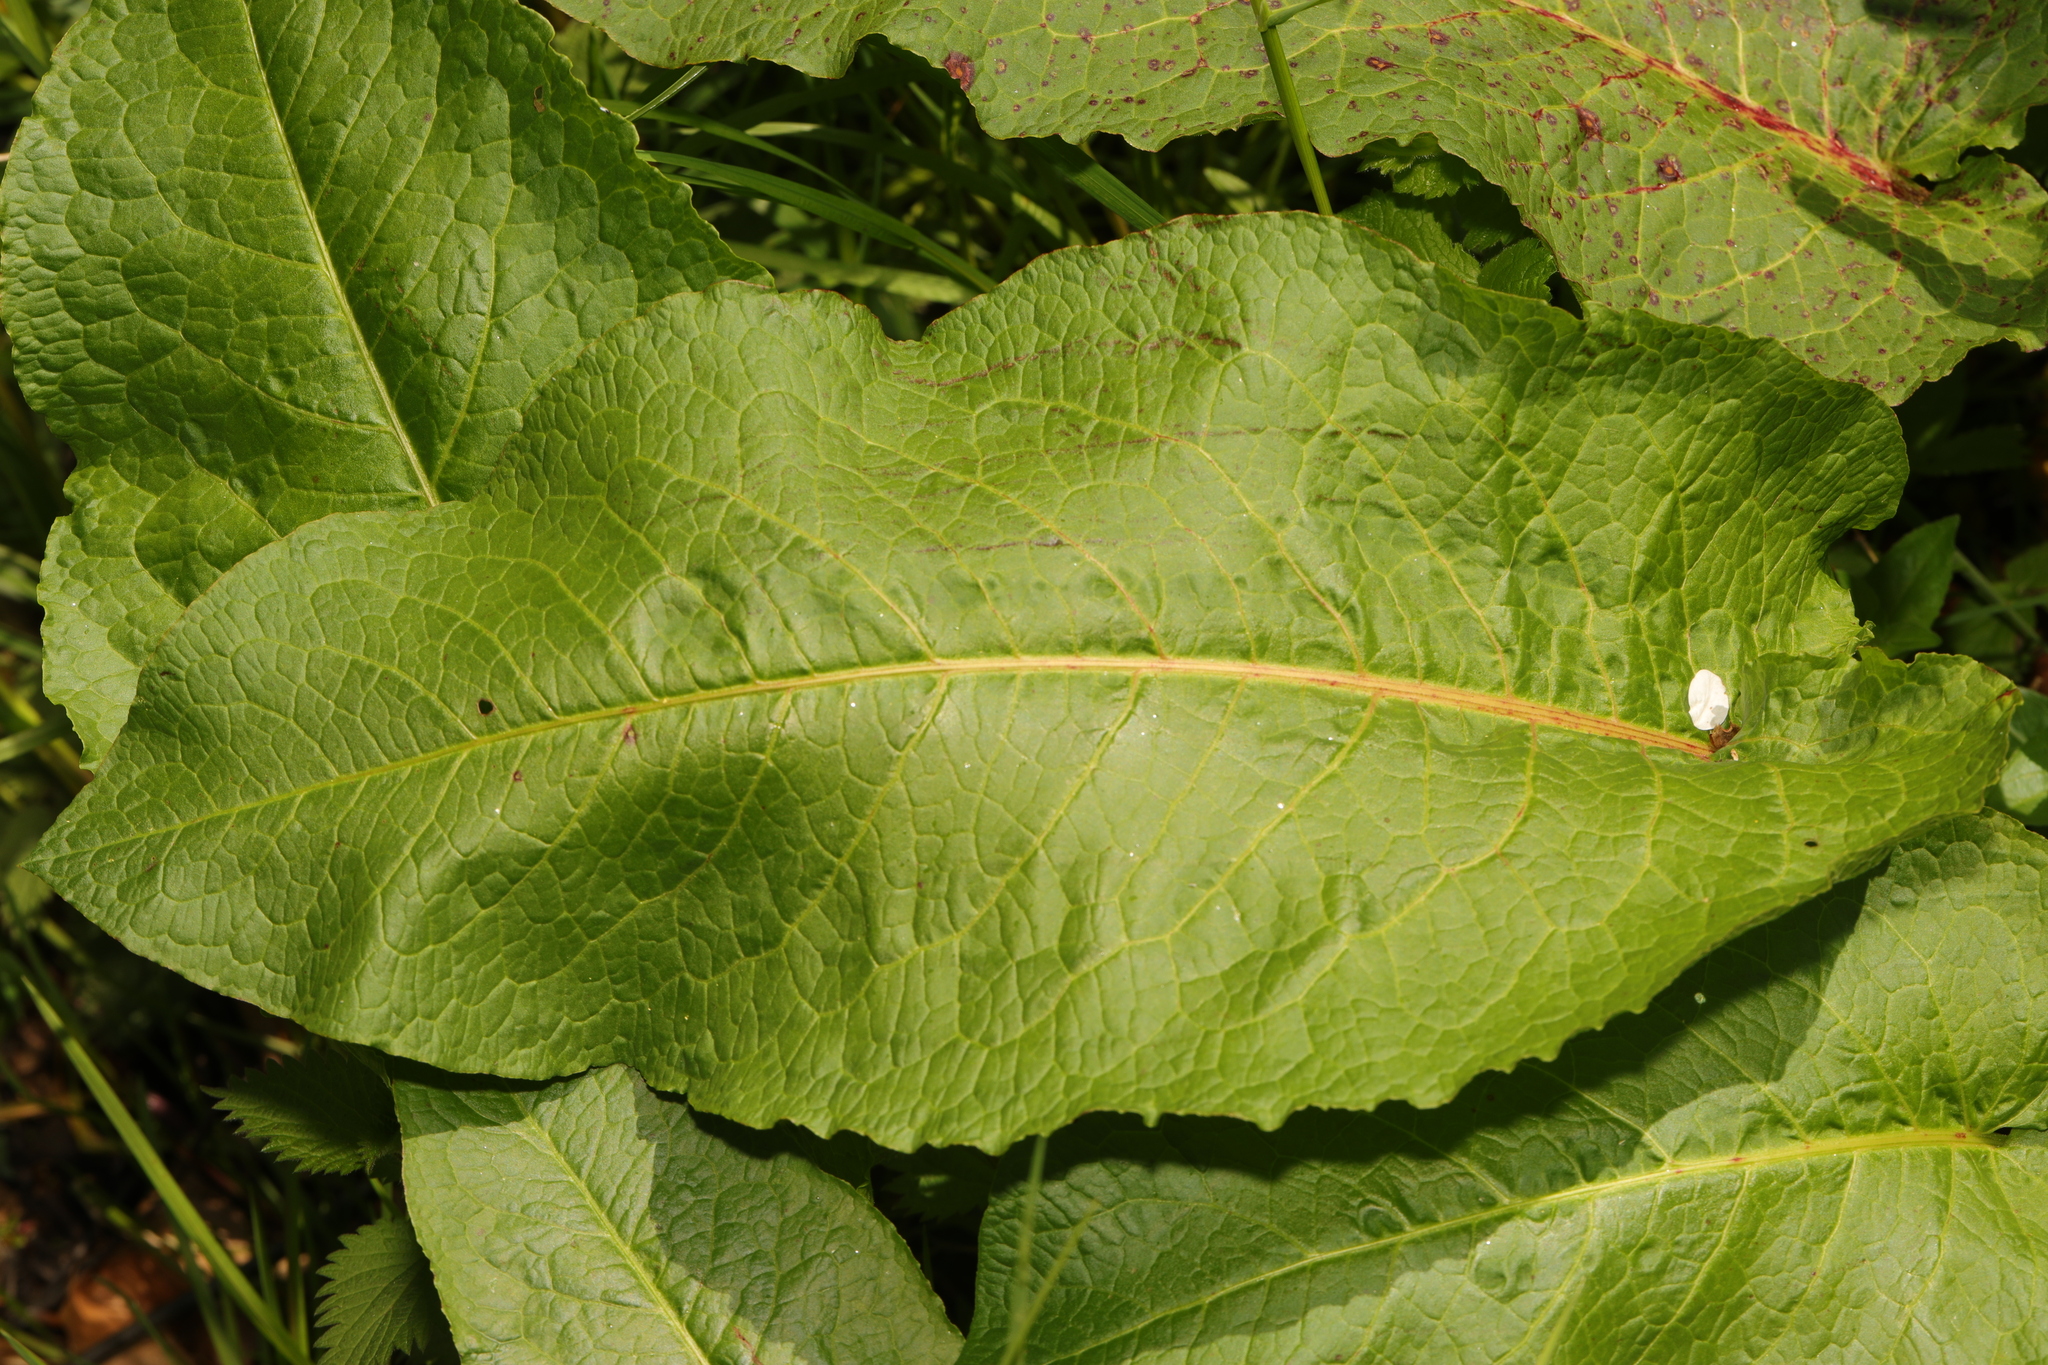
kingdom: Plantae
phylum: Tracheophyta
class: Magnoliopsida
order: Caryophyllales
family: Polygonaceae
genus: Rumex
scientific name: Rumex obtusifolius
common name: Bitter dock
